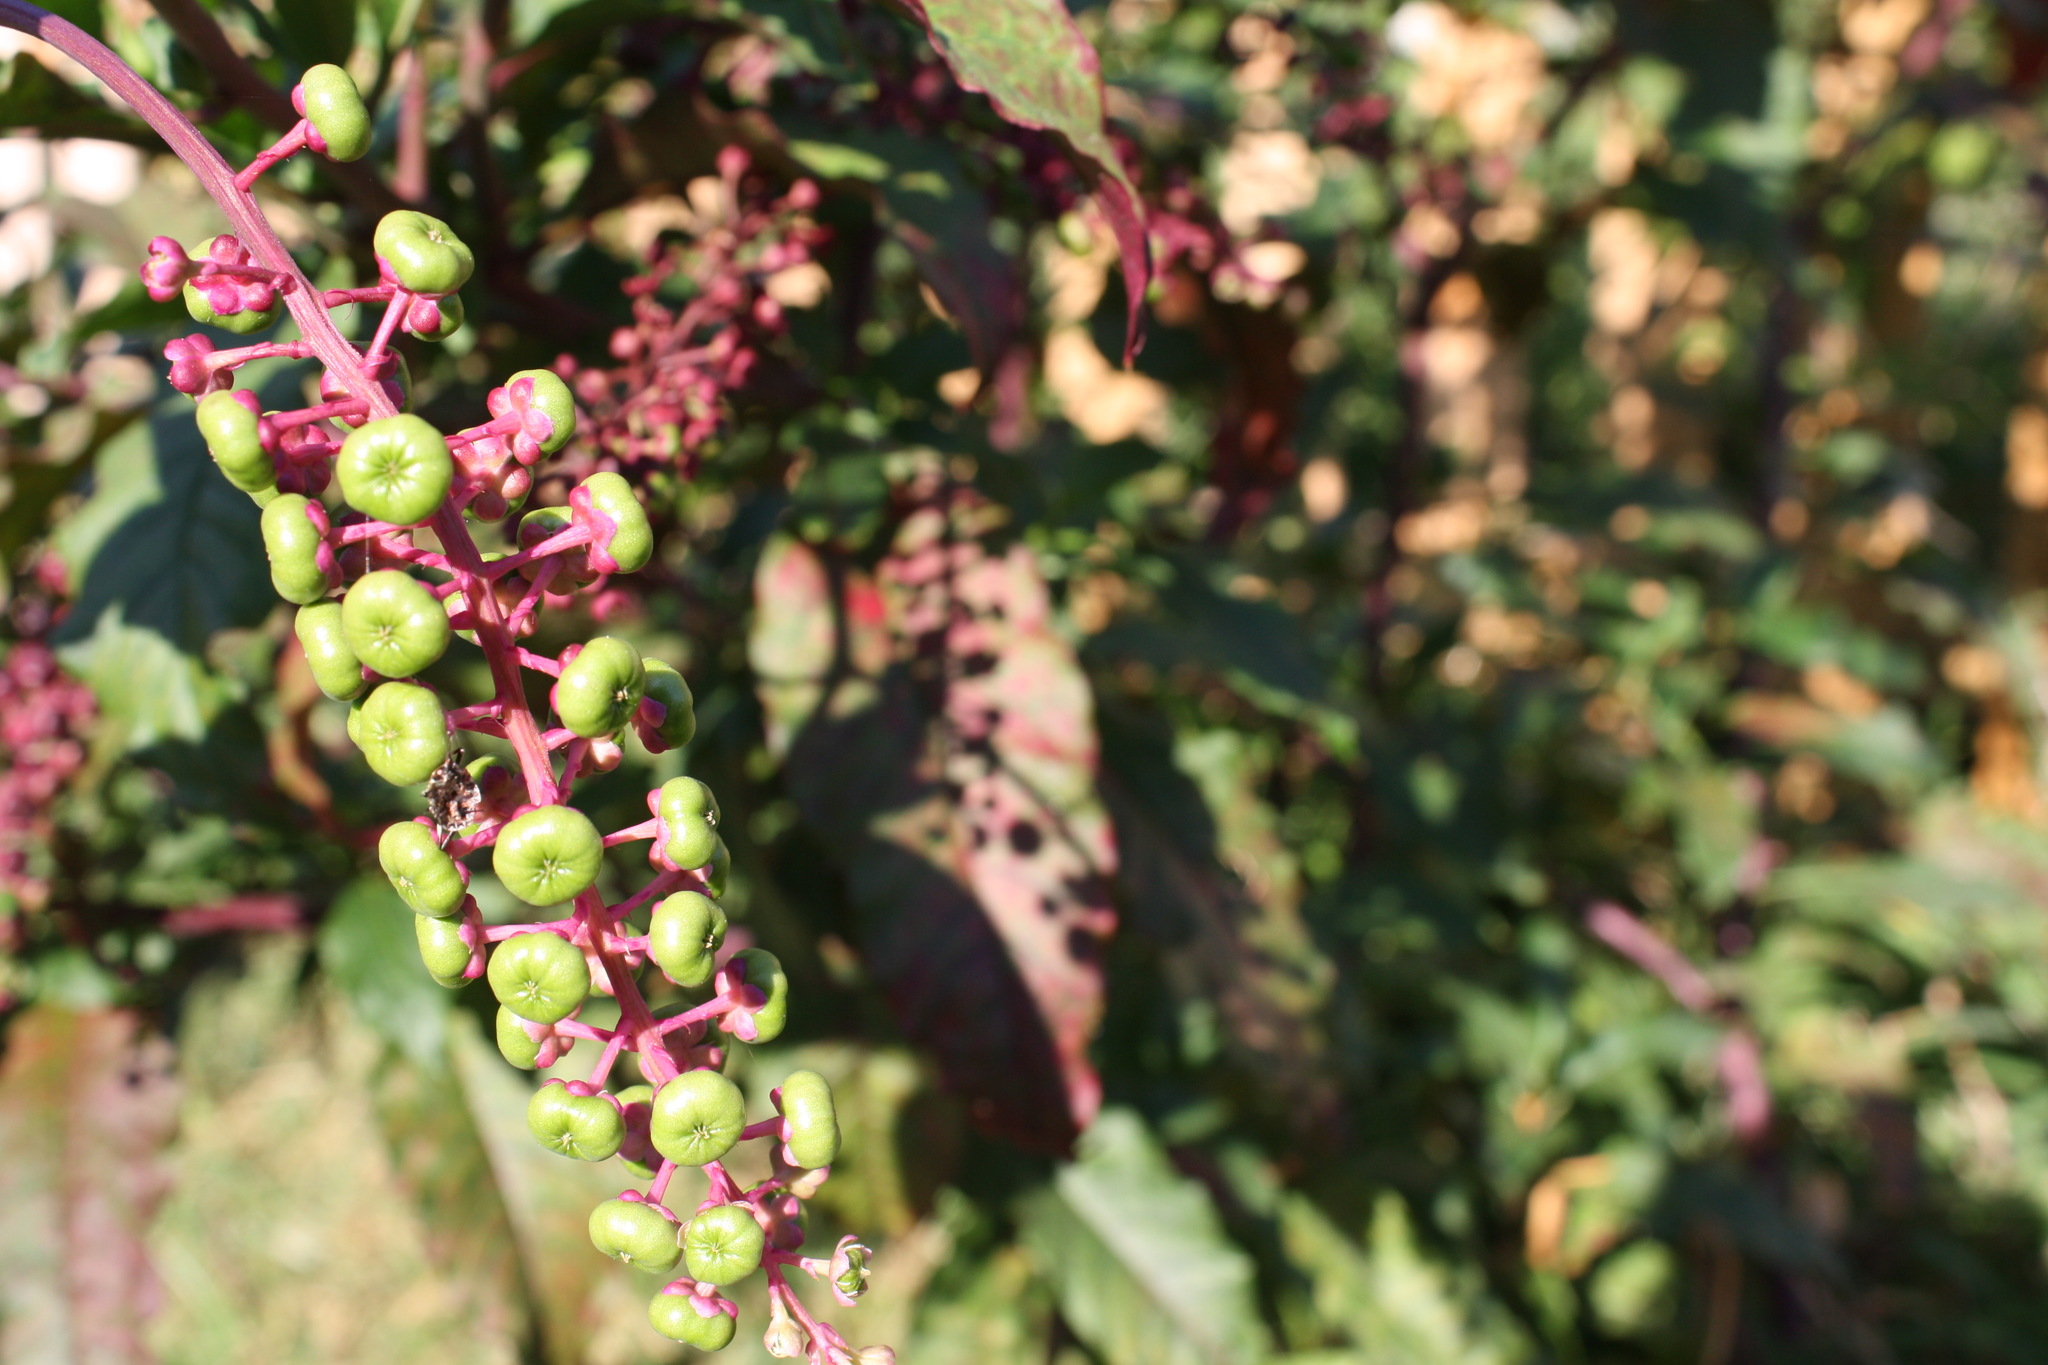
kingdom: Plantae
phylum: Tracheophyta
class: Magnoliopsida
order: Caryophyllales
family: Phytolaccaceae
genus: Phytolacca
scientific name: Phytolacca americana
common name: American pokeweed
